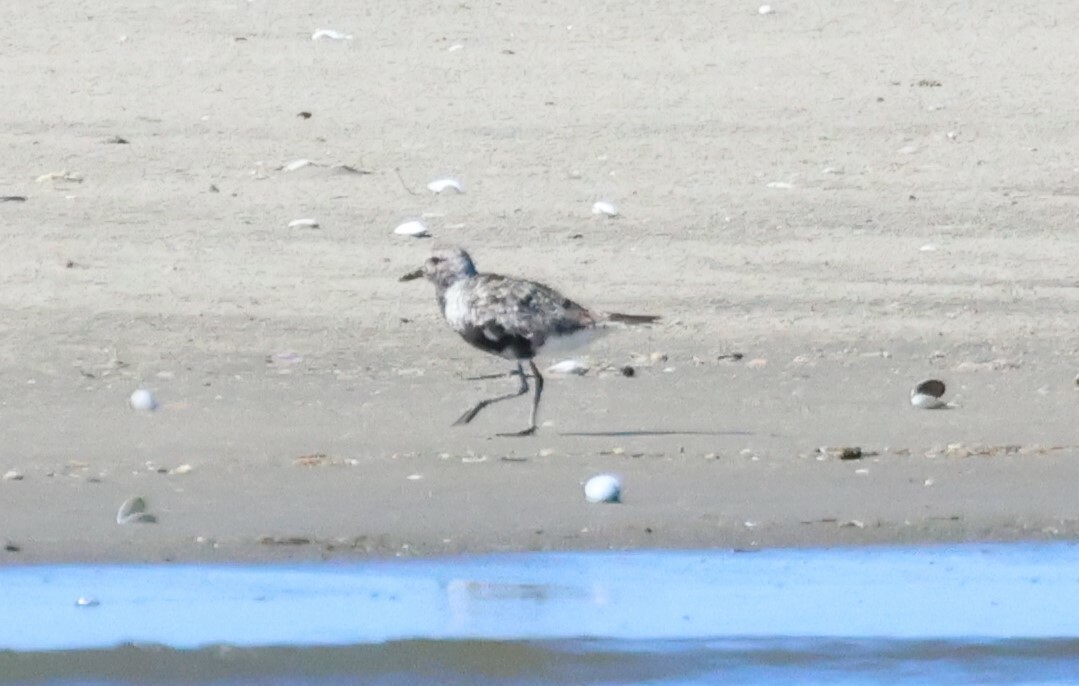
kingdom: Animalia
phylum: Chordata
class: Aves
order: Charadriiformes
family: Charadriidae
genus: Pluvialis
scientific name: Pluvialis squatarola
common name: Grey plover
